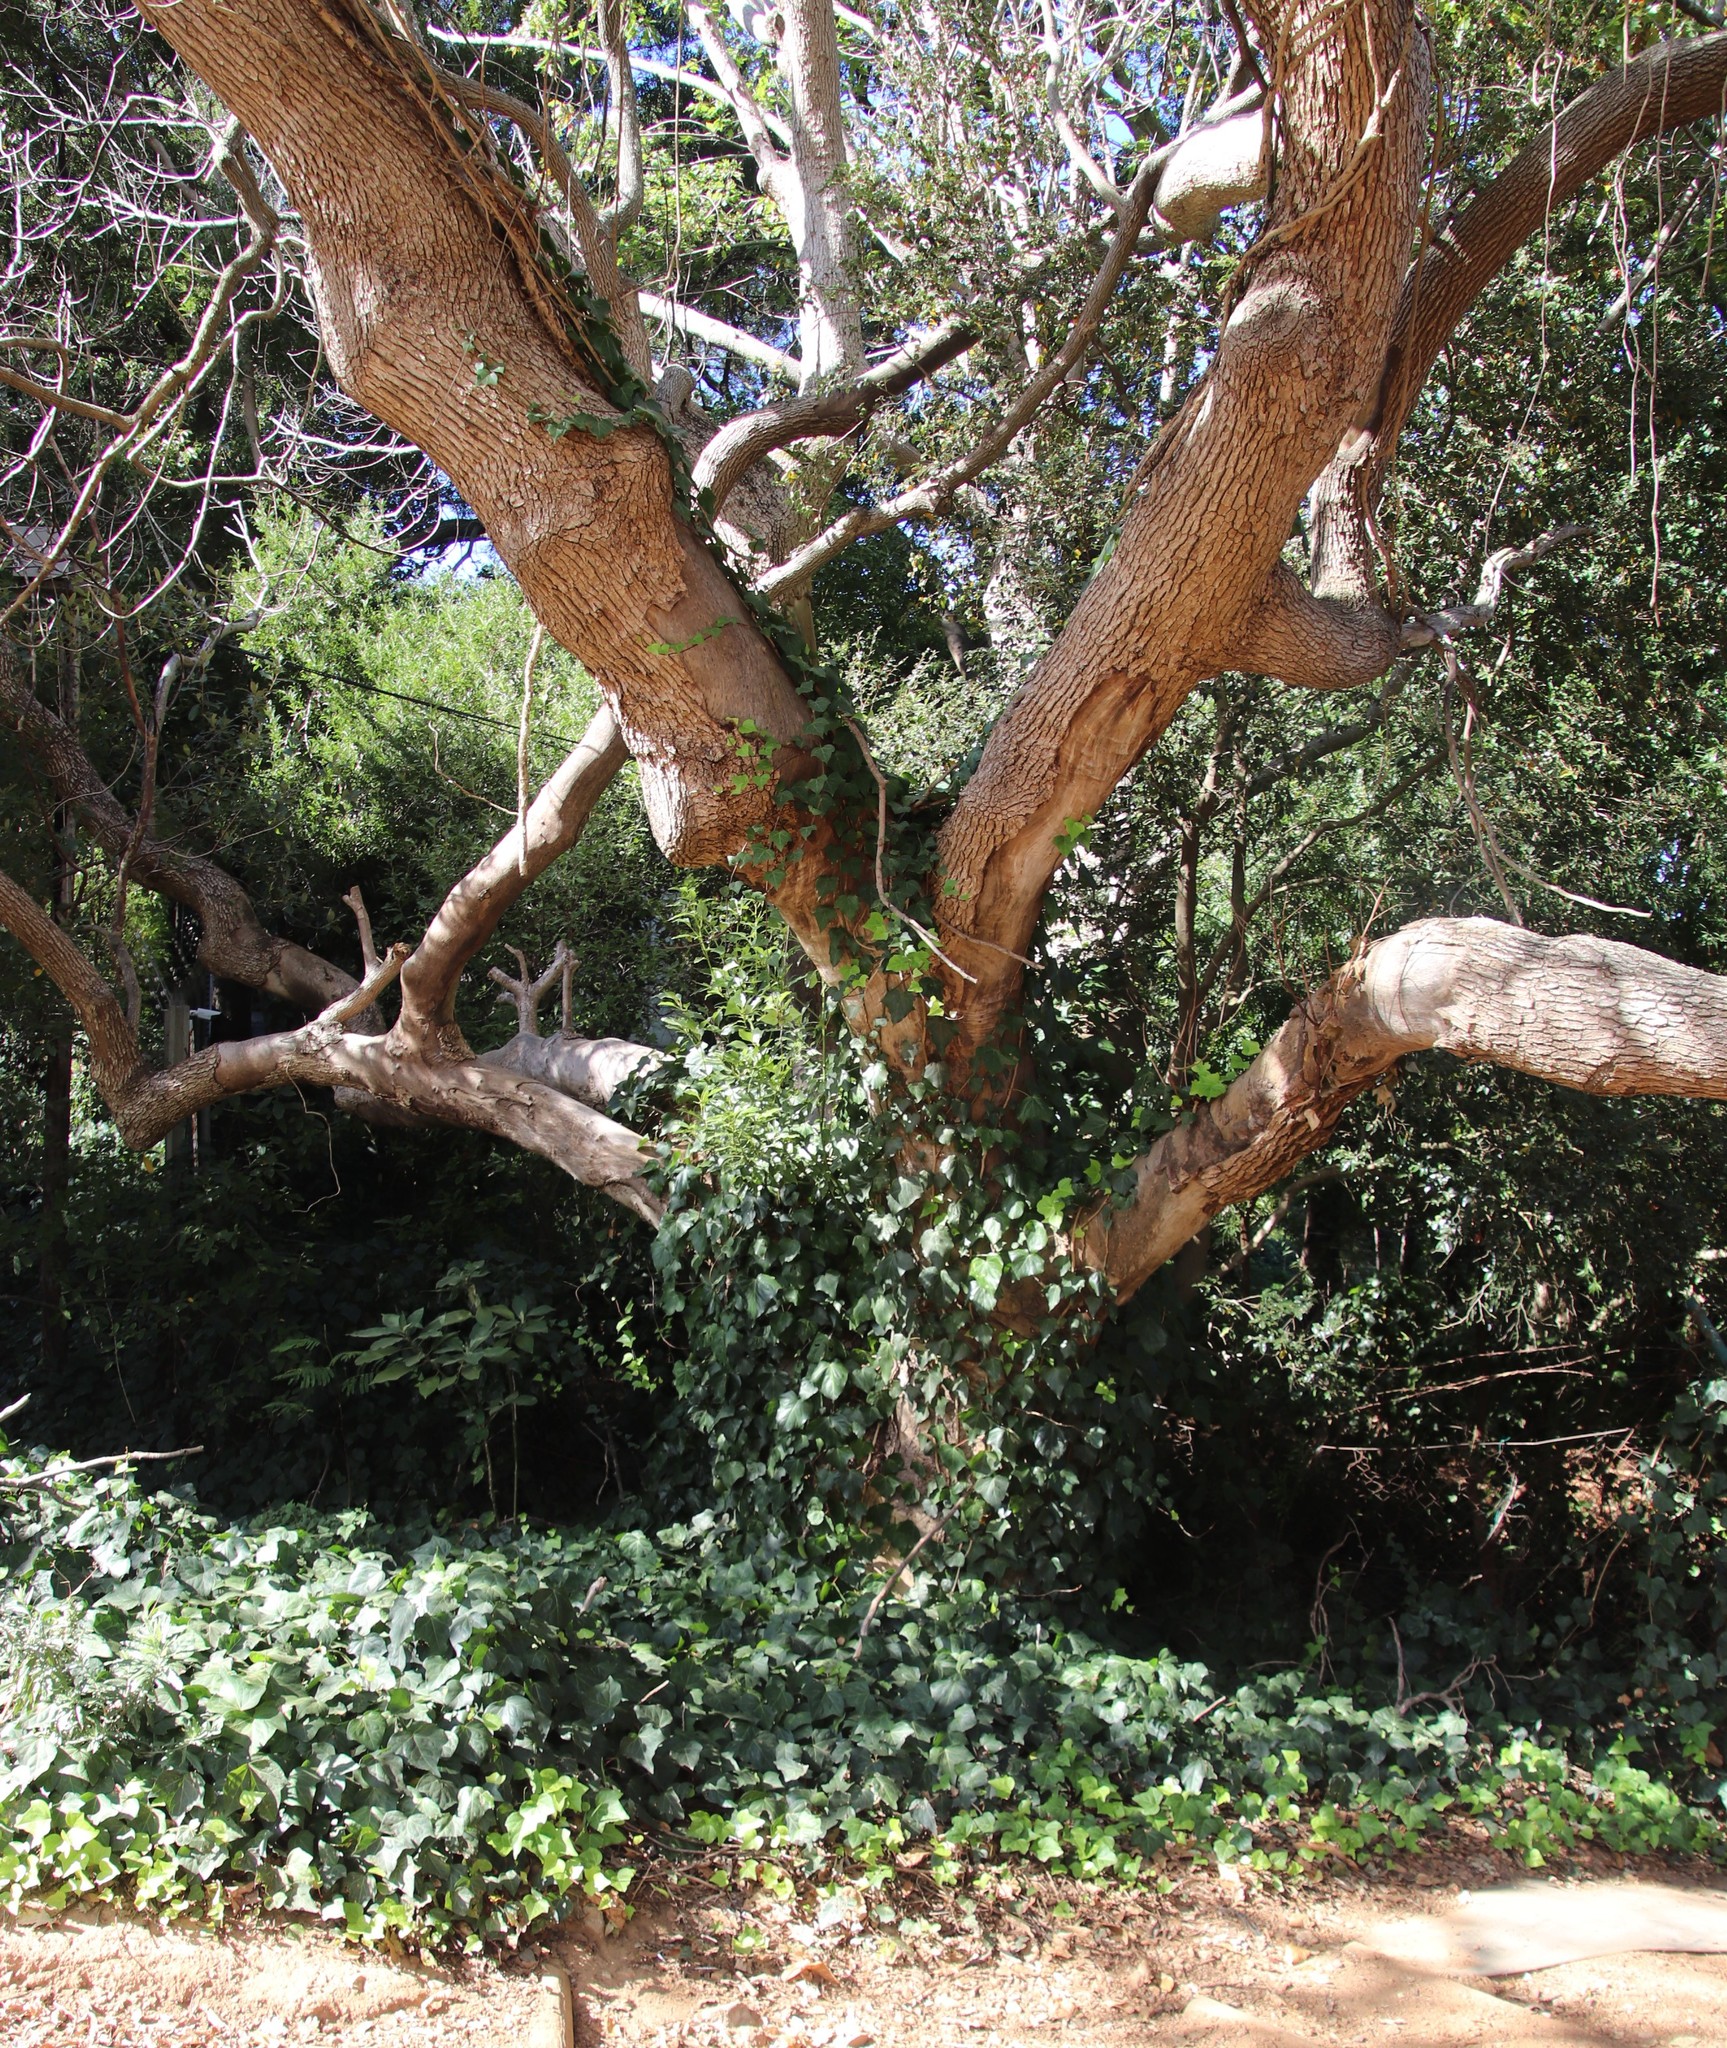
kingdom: Plantae
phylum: Tracheophyta
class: Magnoliopsida
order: Apiales
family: Araliaceae
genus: Hedera
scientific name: Hedera canariensis
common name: Madeira ivy
